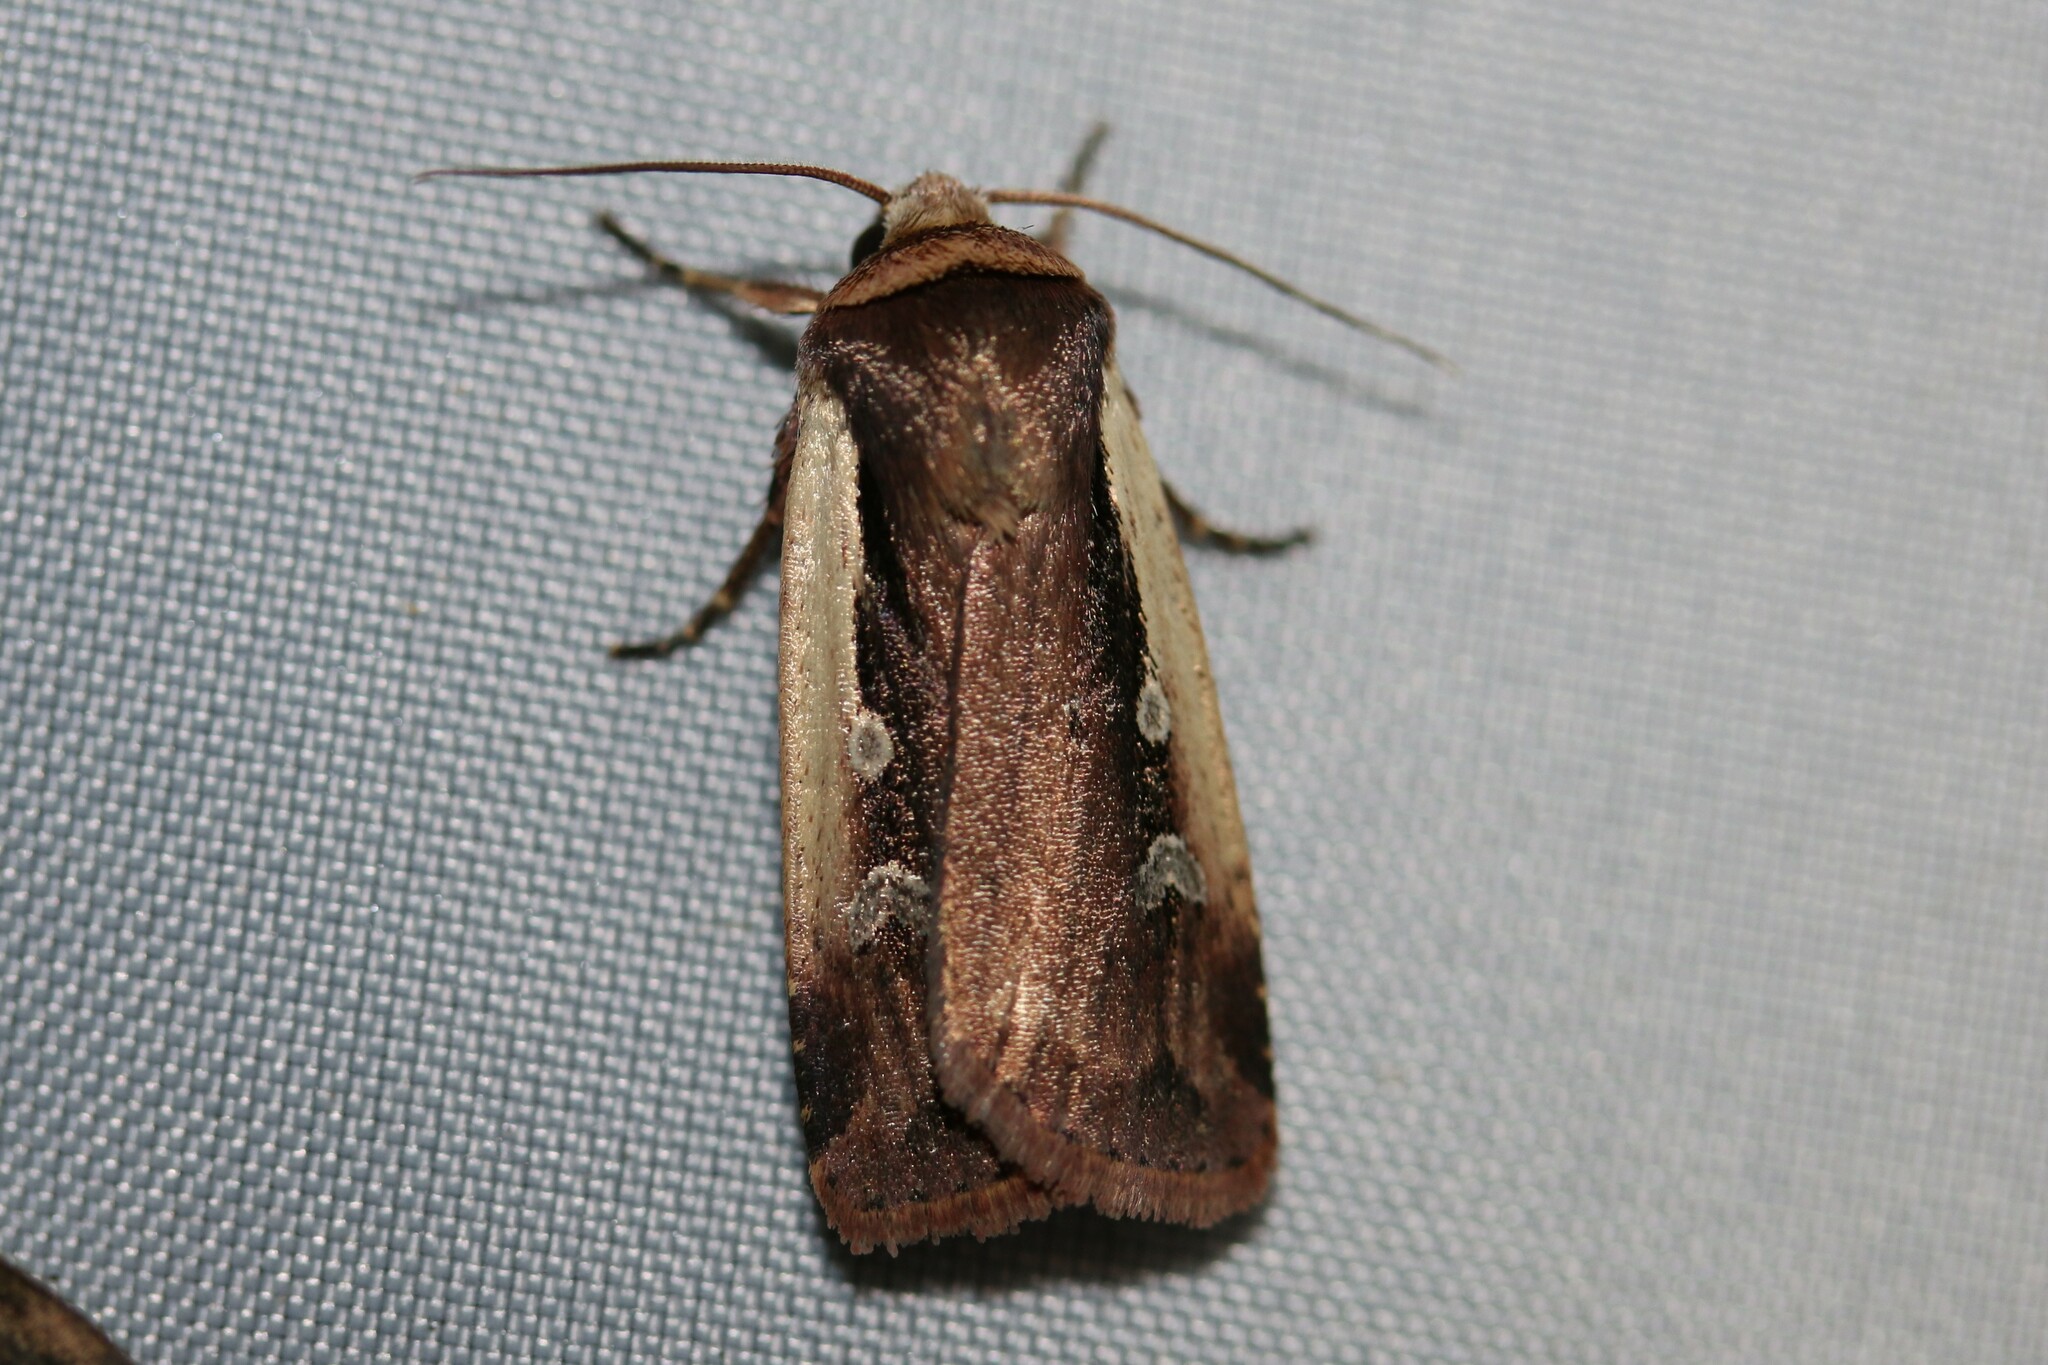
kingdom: Animalia
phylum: Arthropoda
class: Insecta
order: Lepidoptera
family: Noctuidae
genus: Ochropleura
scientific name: Ochropleura plecta
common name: Flame shoulder
